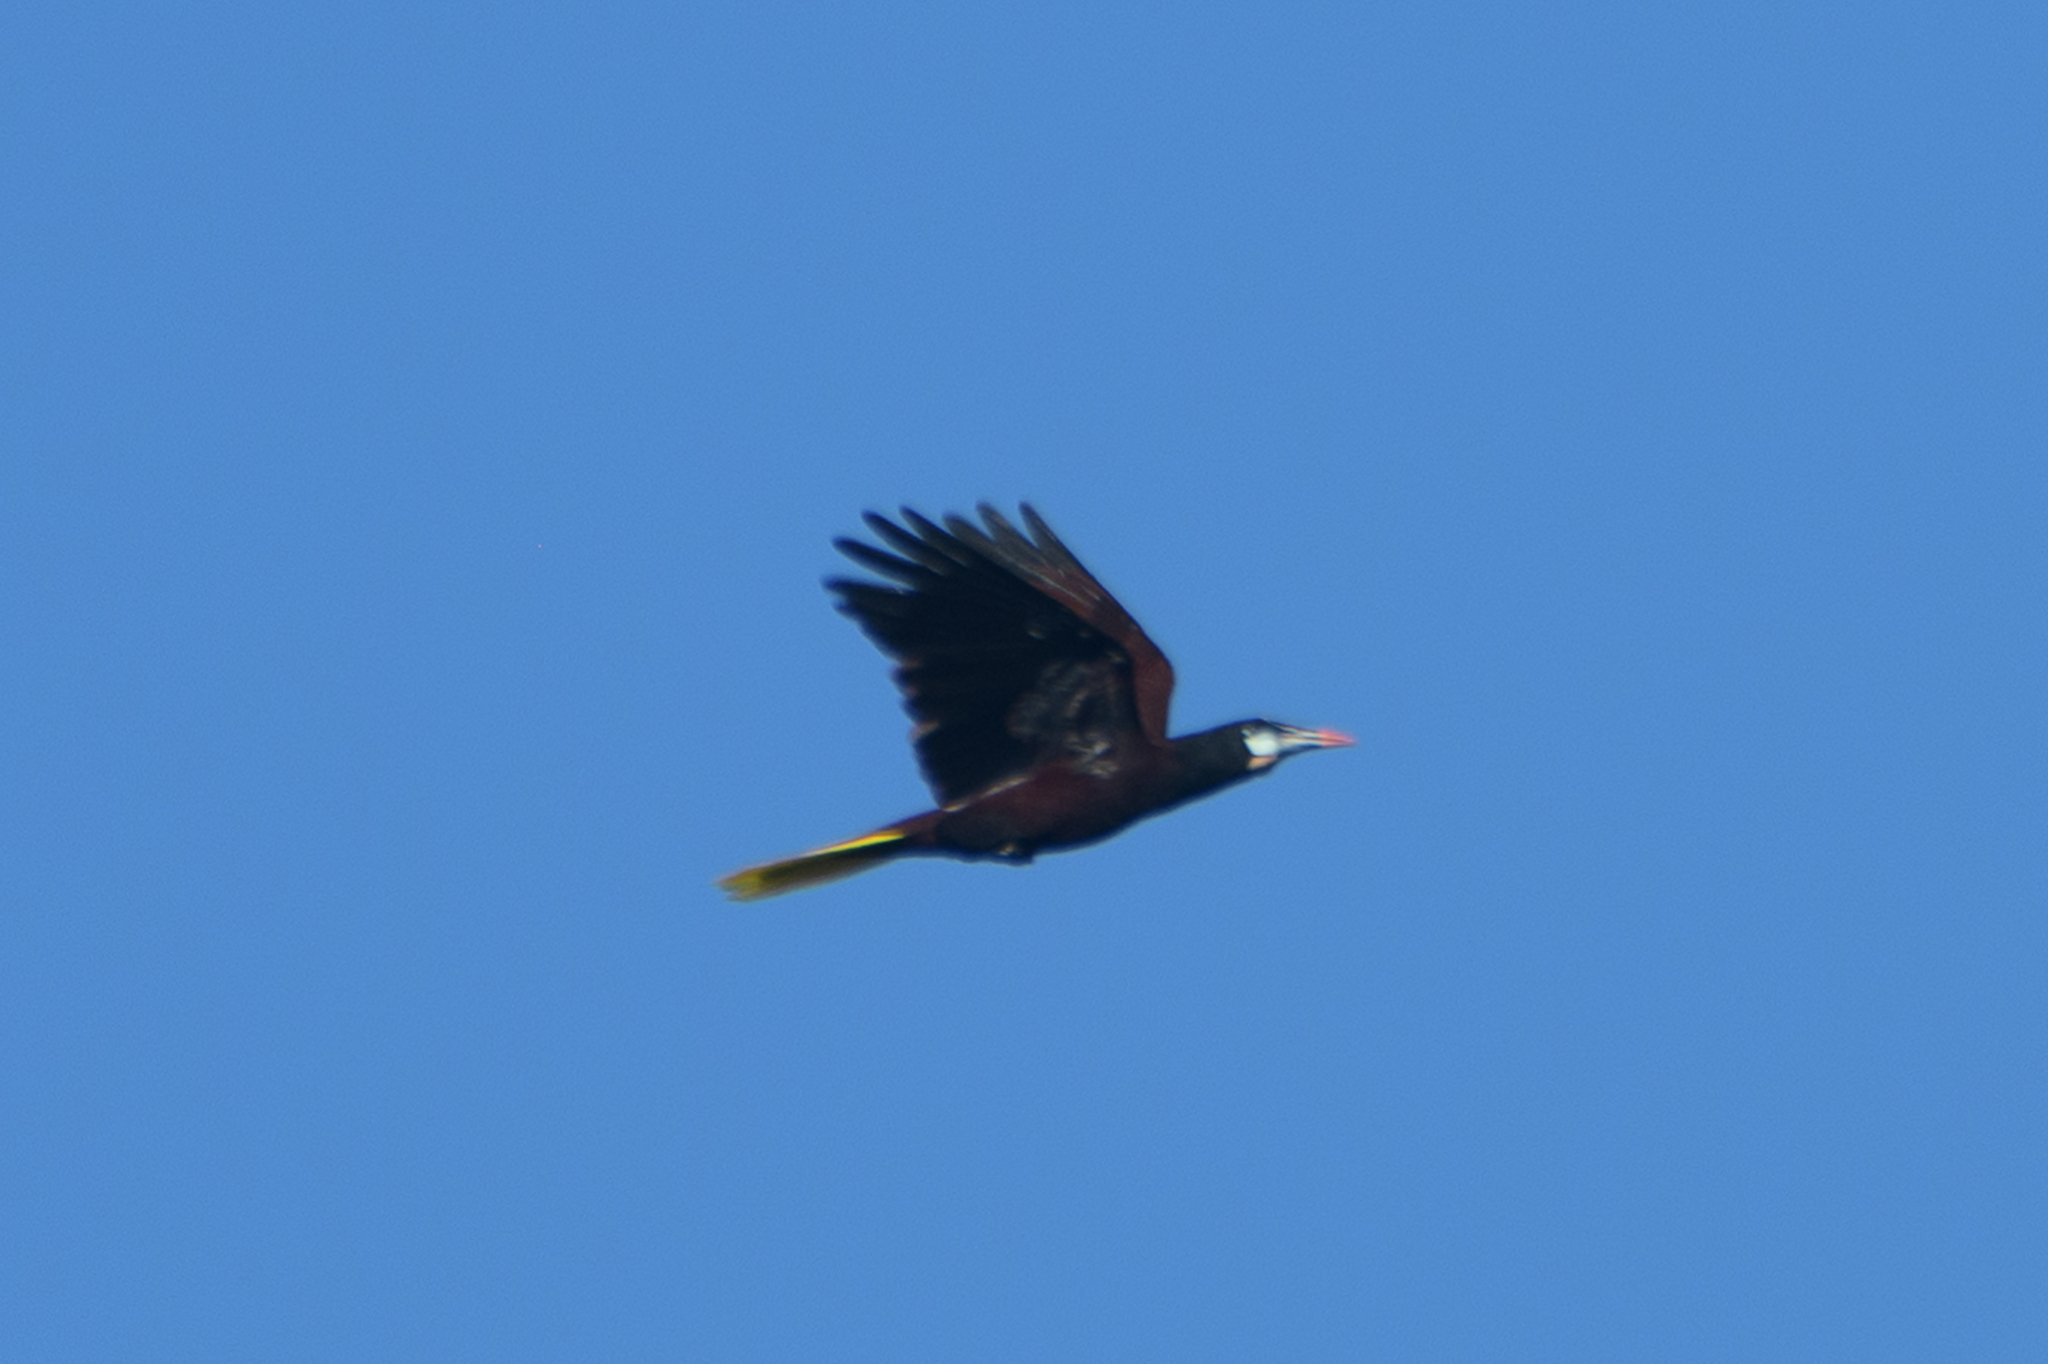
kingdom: Animalia
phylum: Chordata
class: Aves
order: Passeriformes
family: Icteridae
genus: Psarocolius
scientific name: Psarocolius montezuma
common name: Montezuma oropendola
